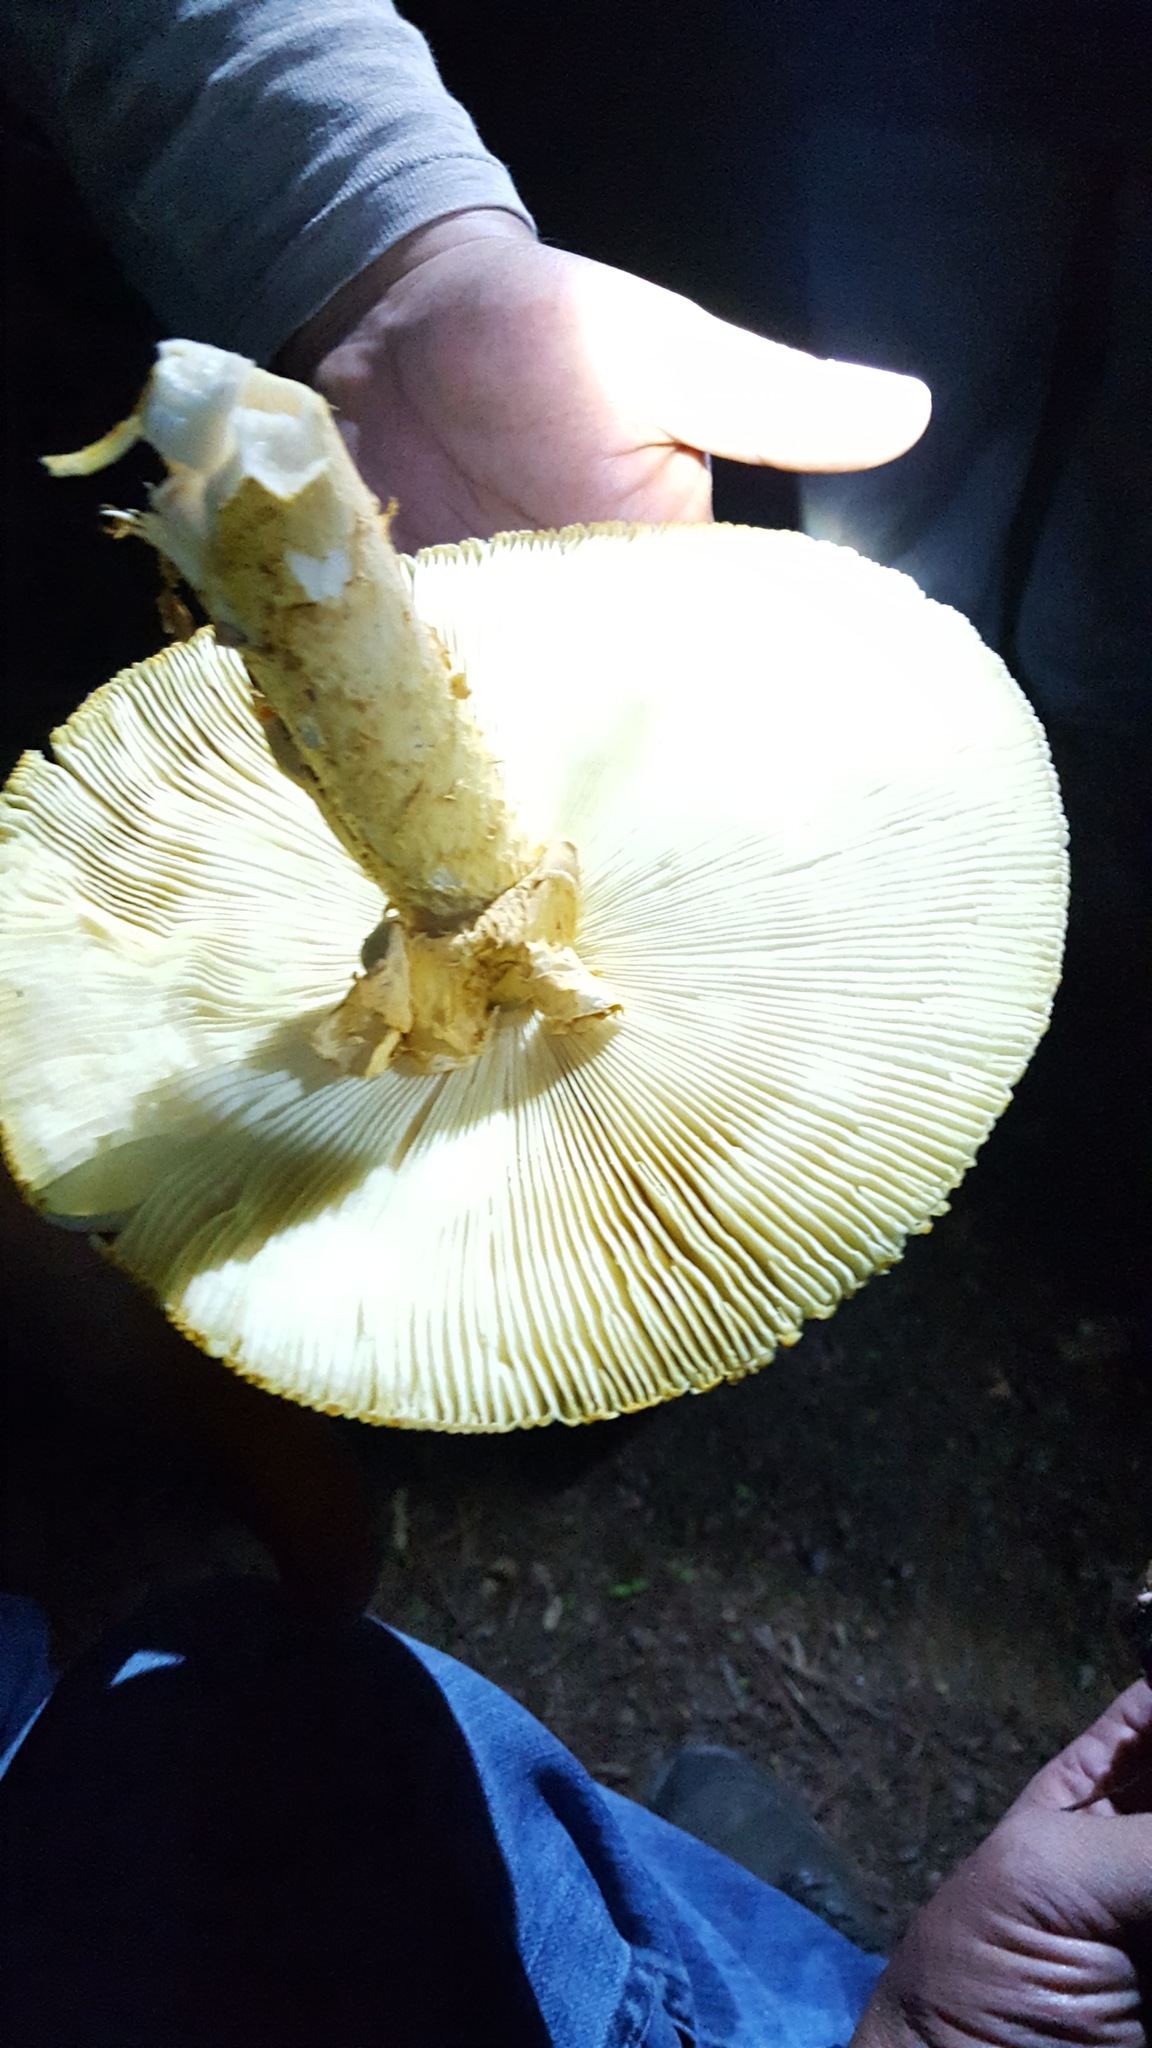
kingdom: Fungi
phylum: Basidiomycota
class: Agaricomycetes
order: Agaricales
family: Amanitaceae
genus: Amanita
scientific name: Amanita laurae
